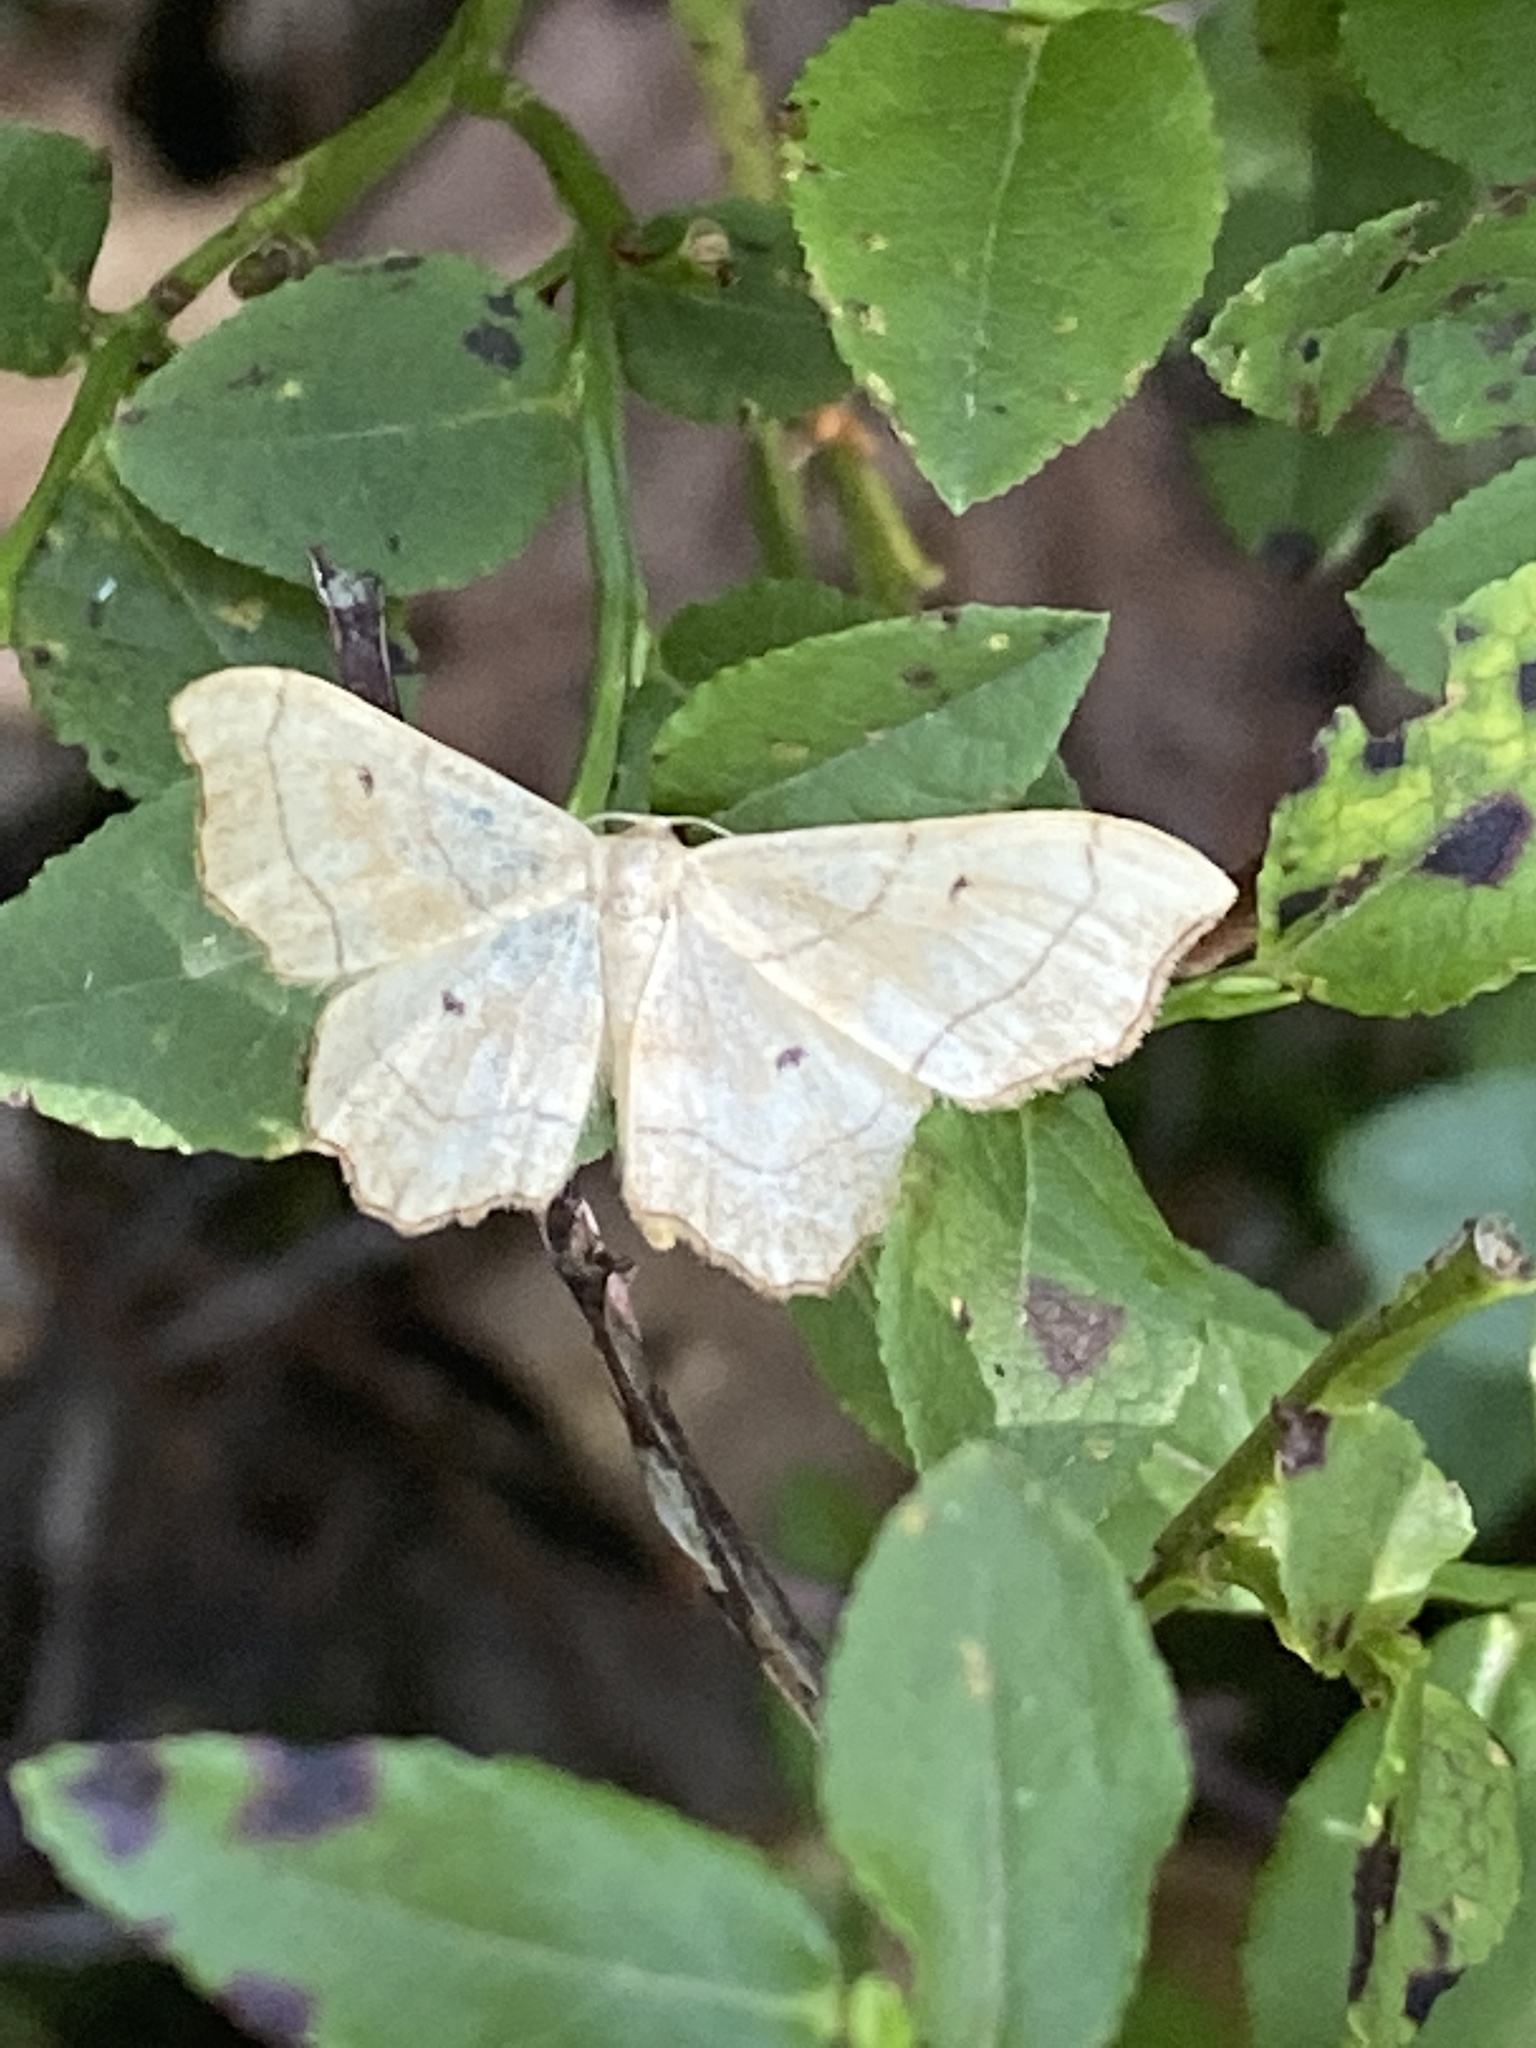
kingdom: Animalia
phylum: Arthropoda
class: Insecta
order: Lepidoptera
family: Geometridae
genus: Idaea
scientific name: Idaea emarginata
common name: Small scallop
